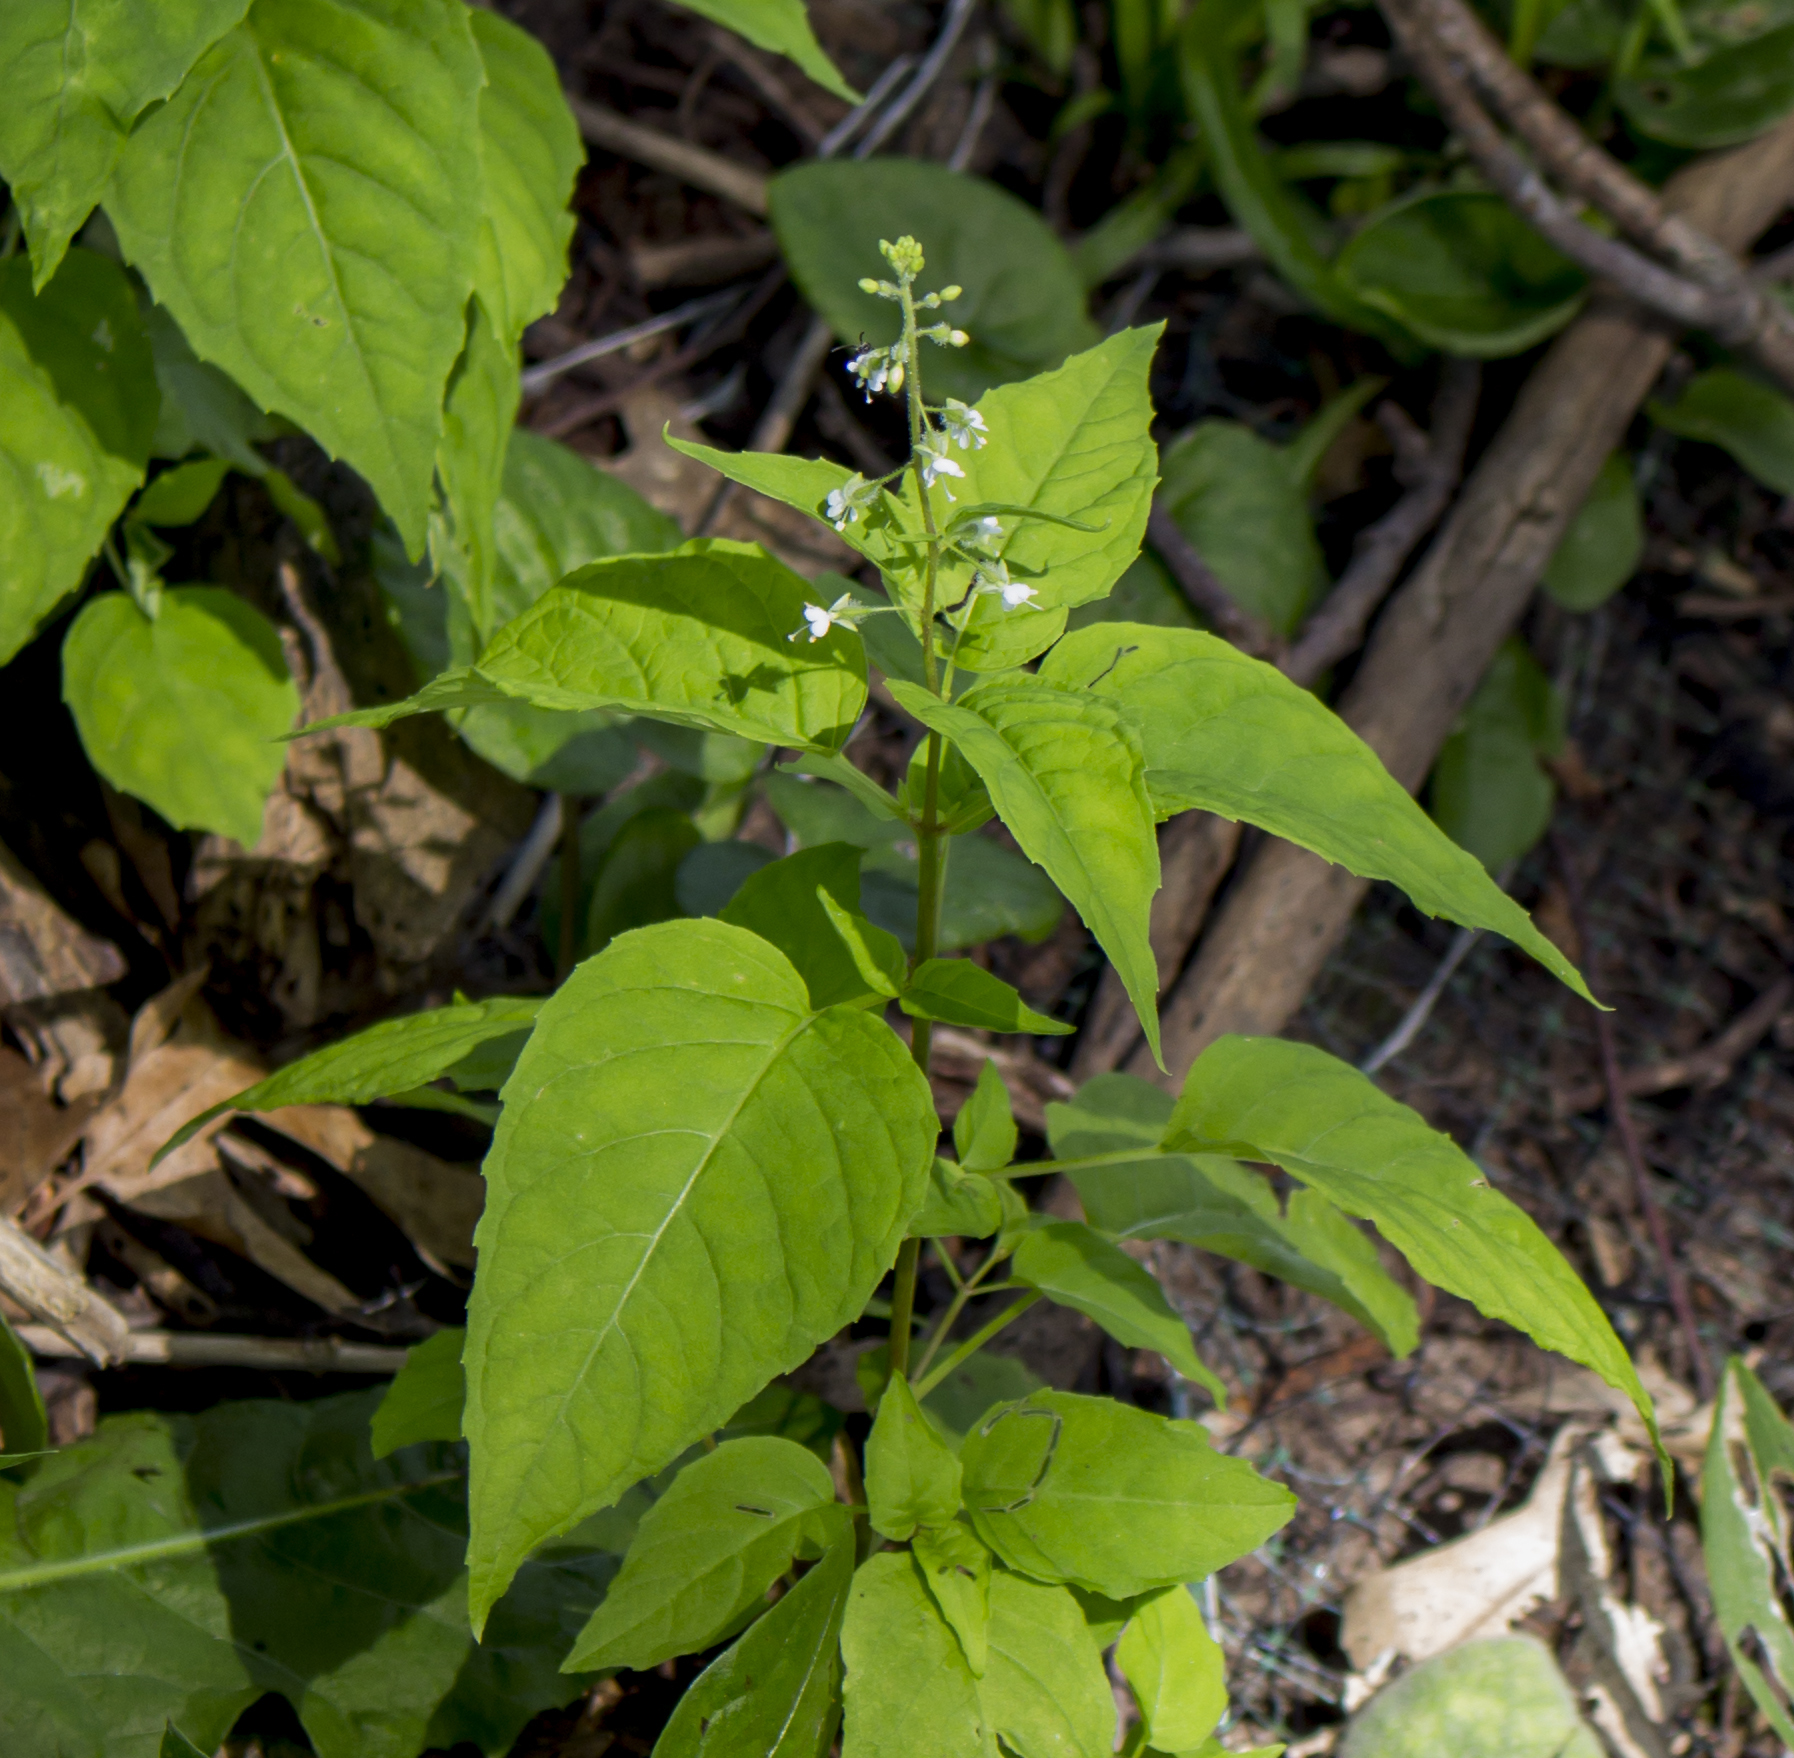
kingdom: Plantae
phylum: Tracheophyta
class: Magnoliopsida
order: Myrtales
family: Onagraceae
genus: Circaea
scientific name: Circaea canadensis
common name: Broad-leaved enchanter's nightshade
